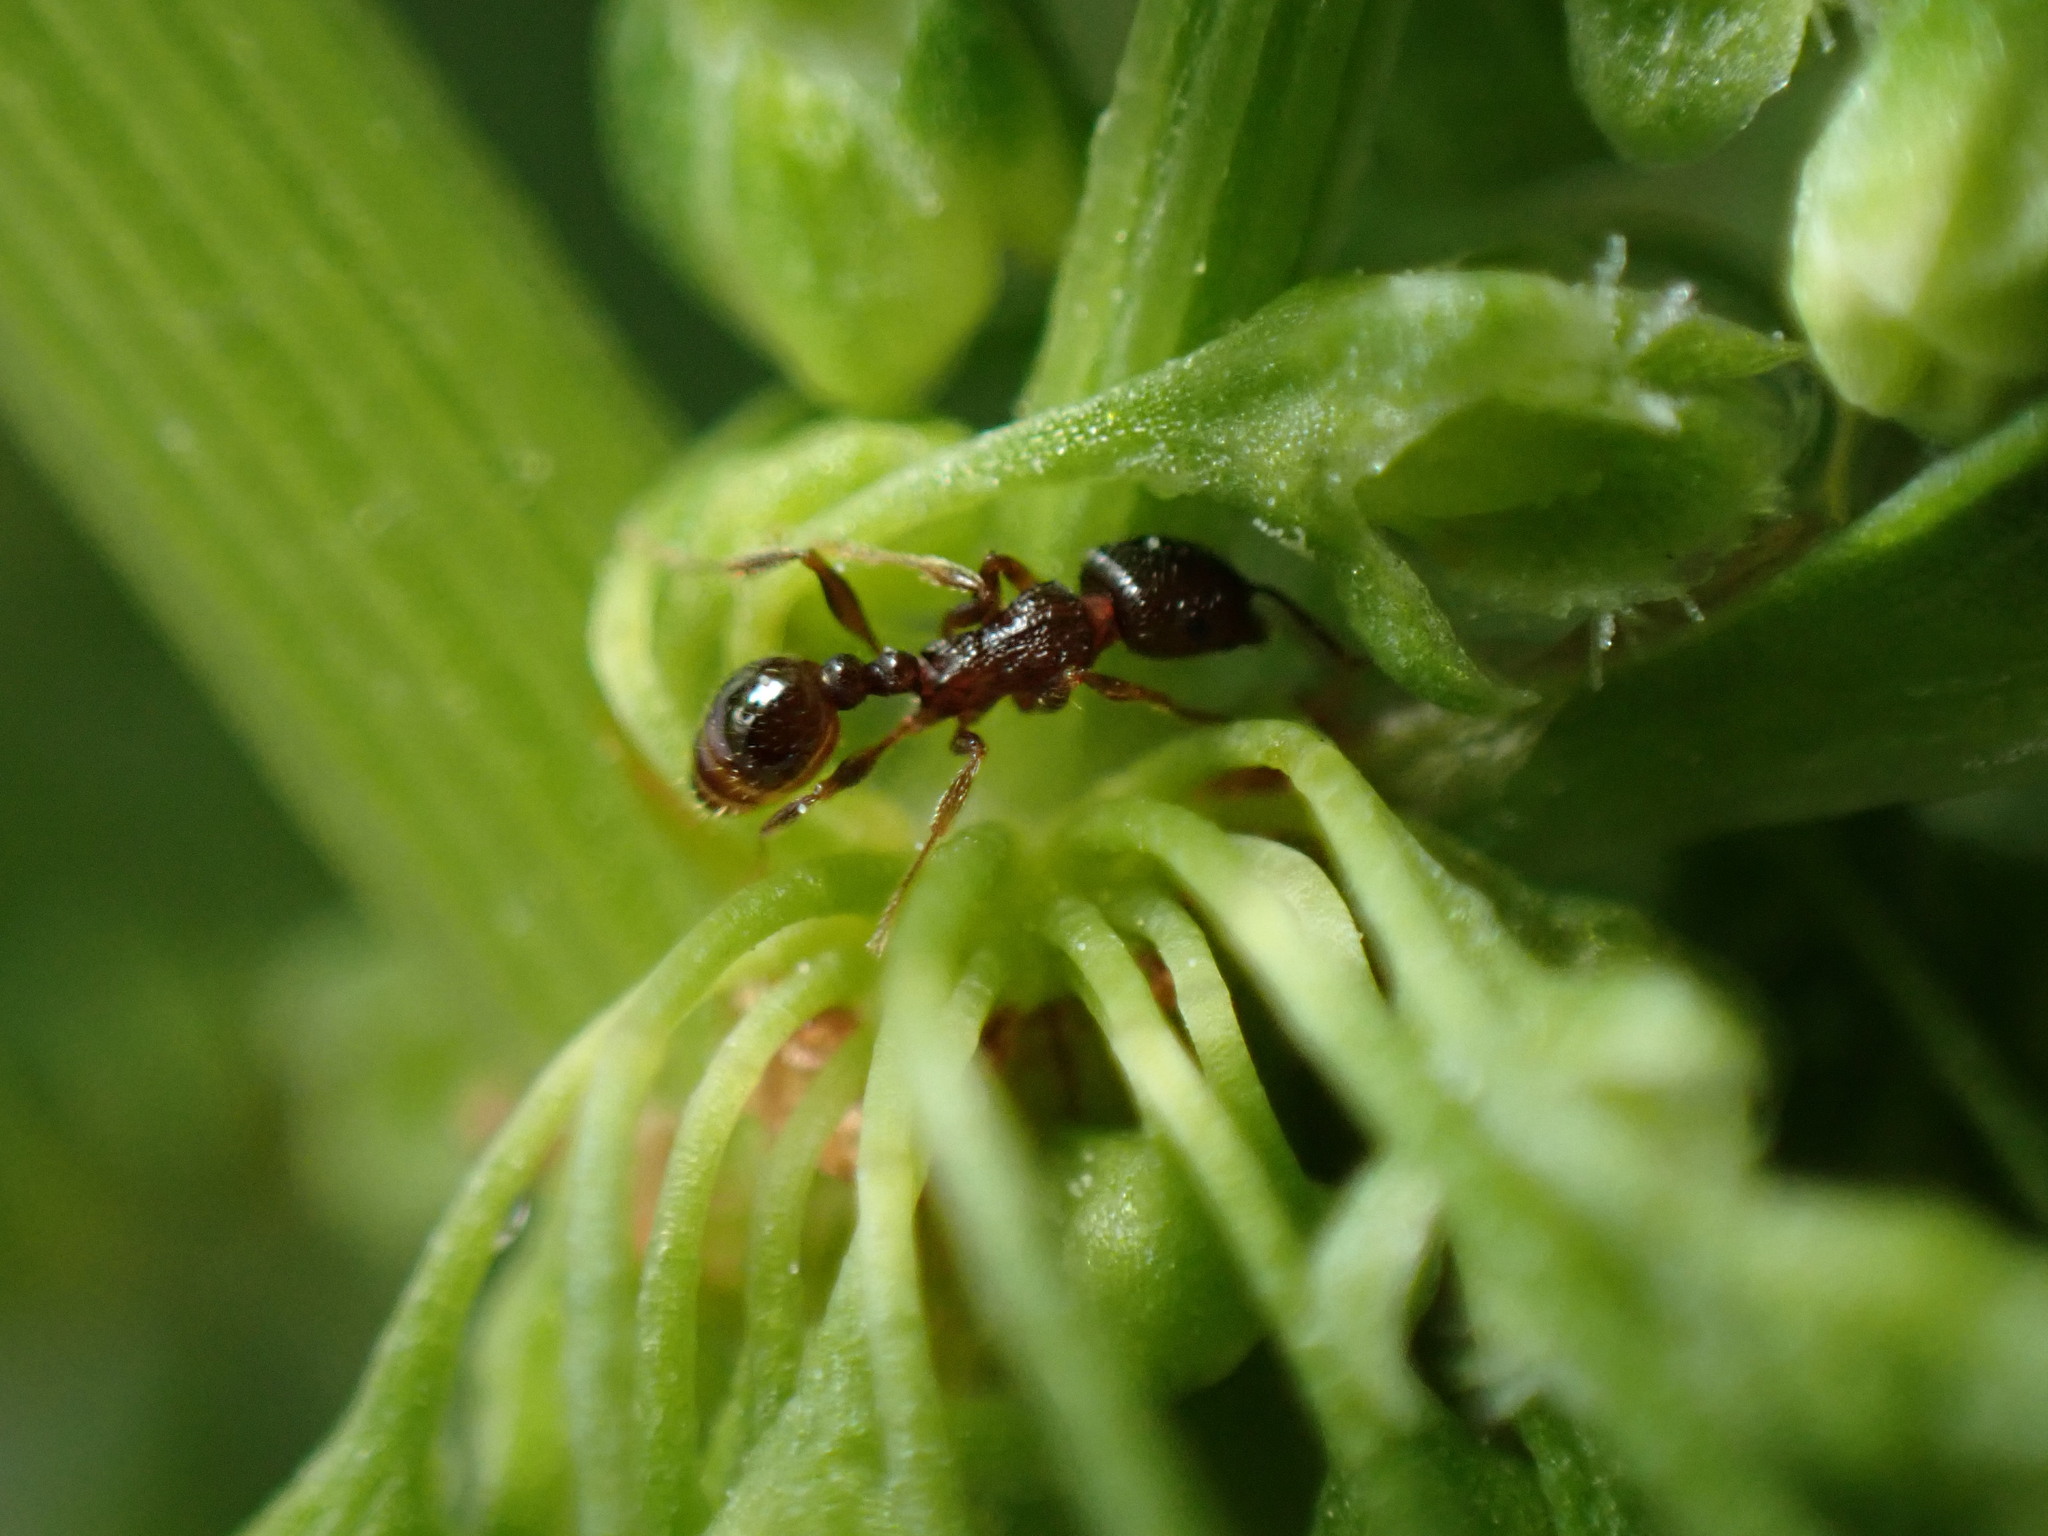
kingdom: Animalia
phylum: Arthropoda
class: Insecta
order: Hymenoptera
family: Formicidae
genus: Tetramorium
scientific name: Tetramorium tsushimae
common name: Ant
